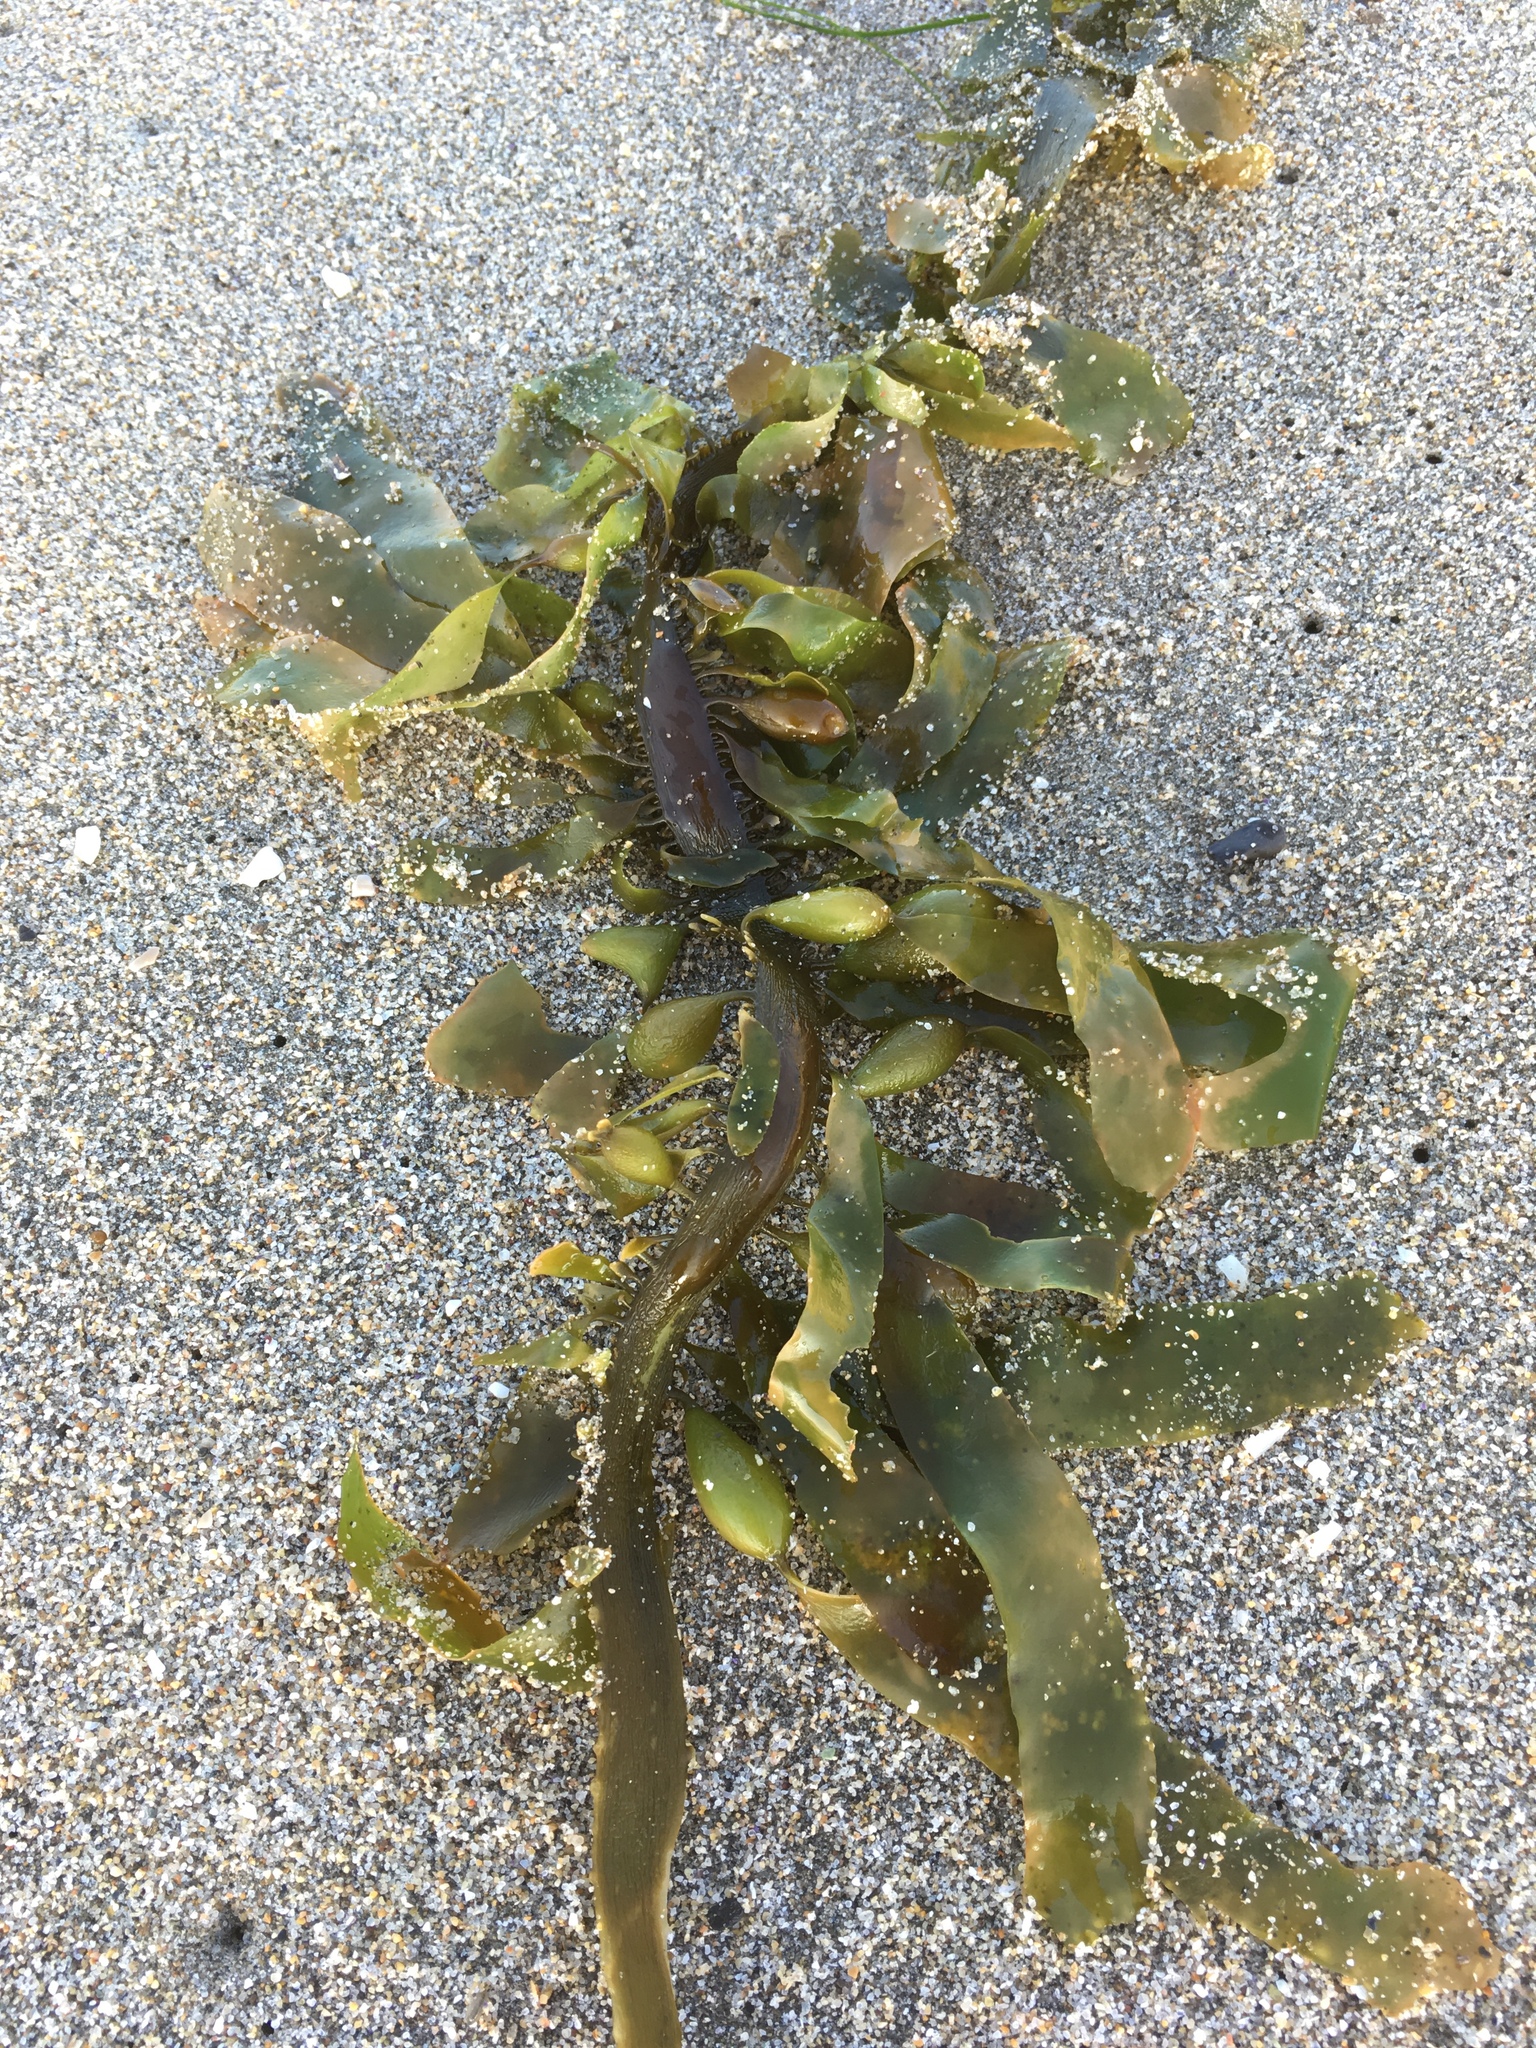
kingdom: Chromista
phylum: Ochrophyta
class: Phaeophyceae
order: Laminariales
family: Lessoniaceae
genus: Egregia
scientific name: Egregia menziesii
